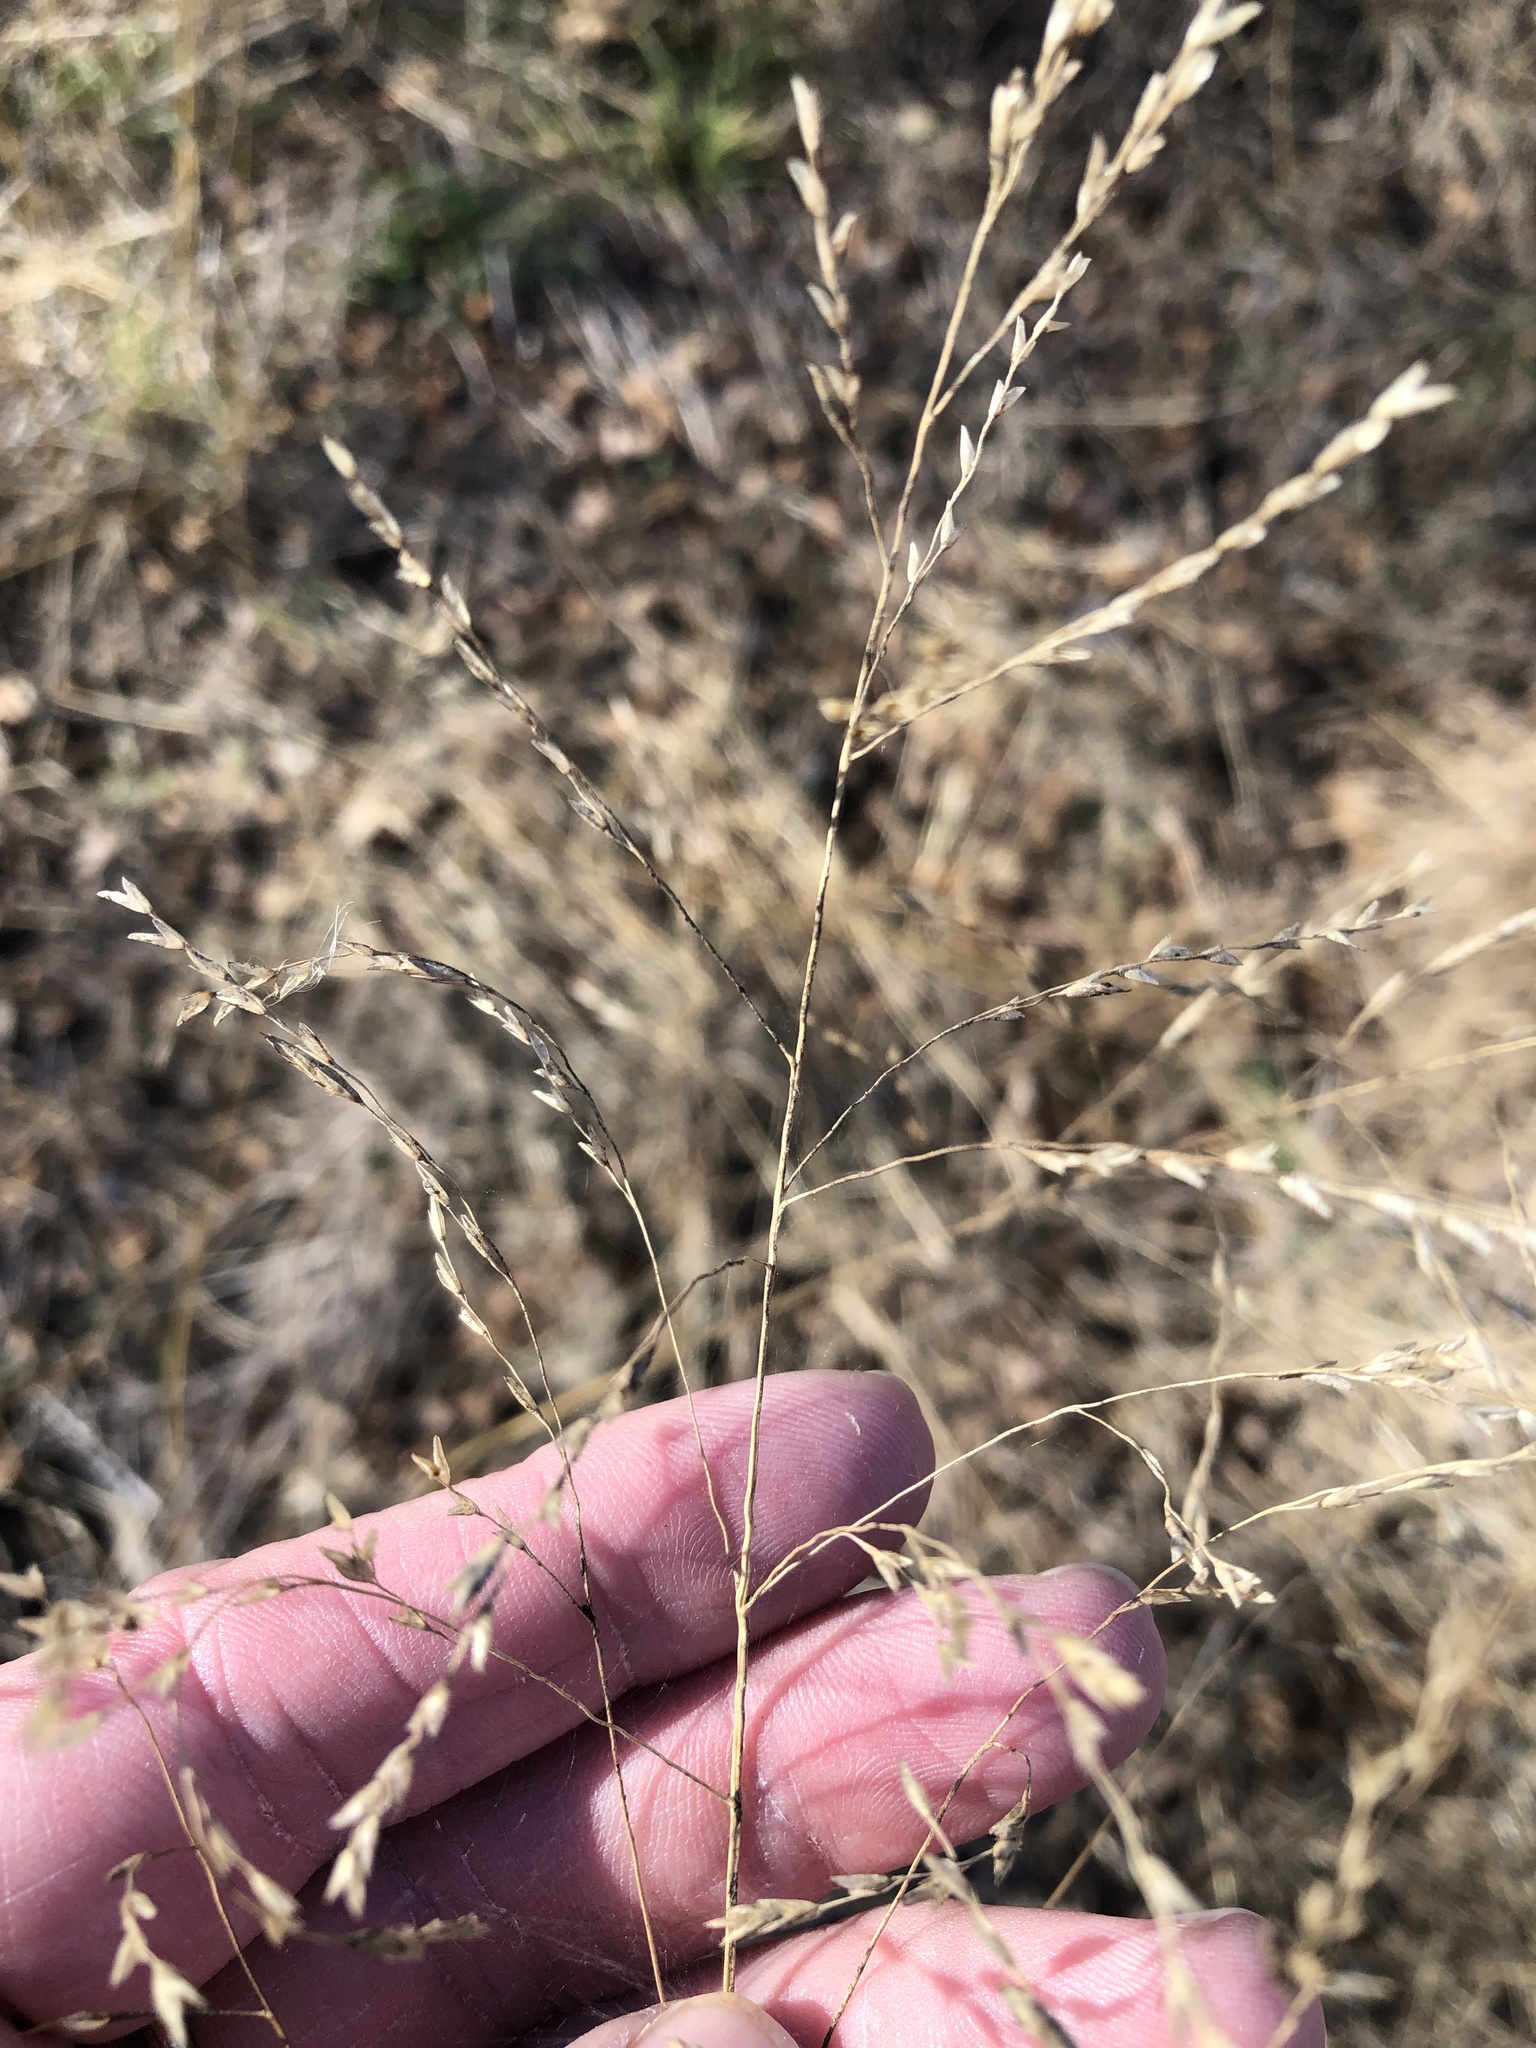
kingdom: Plantae
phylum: Tracheophyta
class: Liliopsida
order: Poales
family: Poaceae
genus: Tridens
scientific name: Tridens flavus
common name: Purpletop
